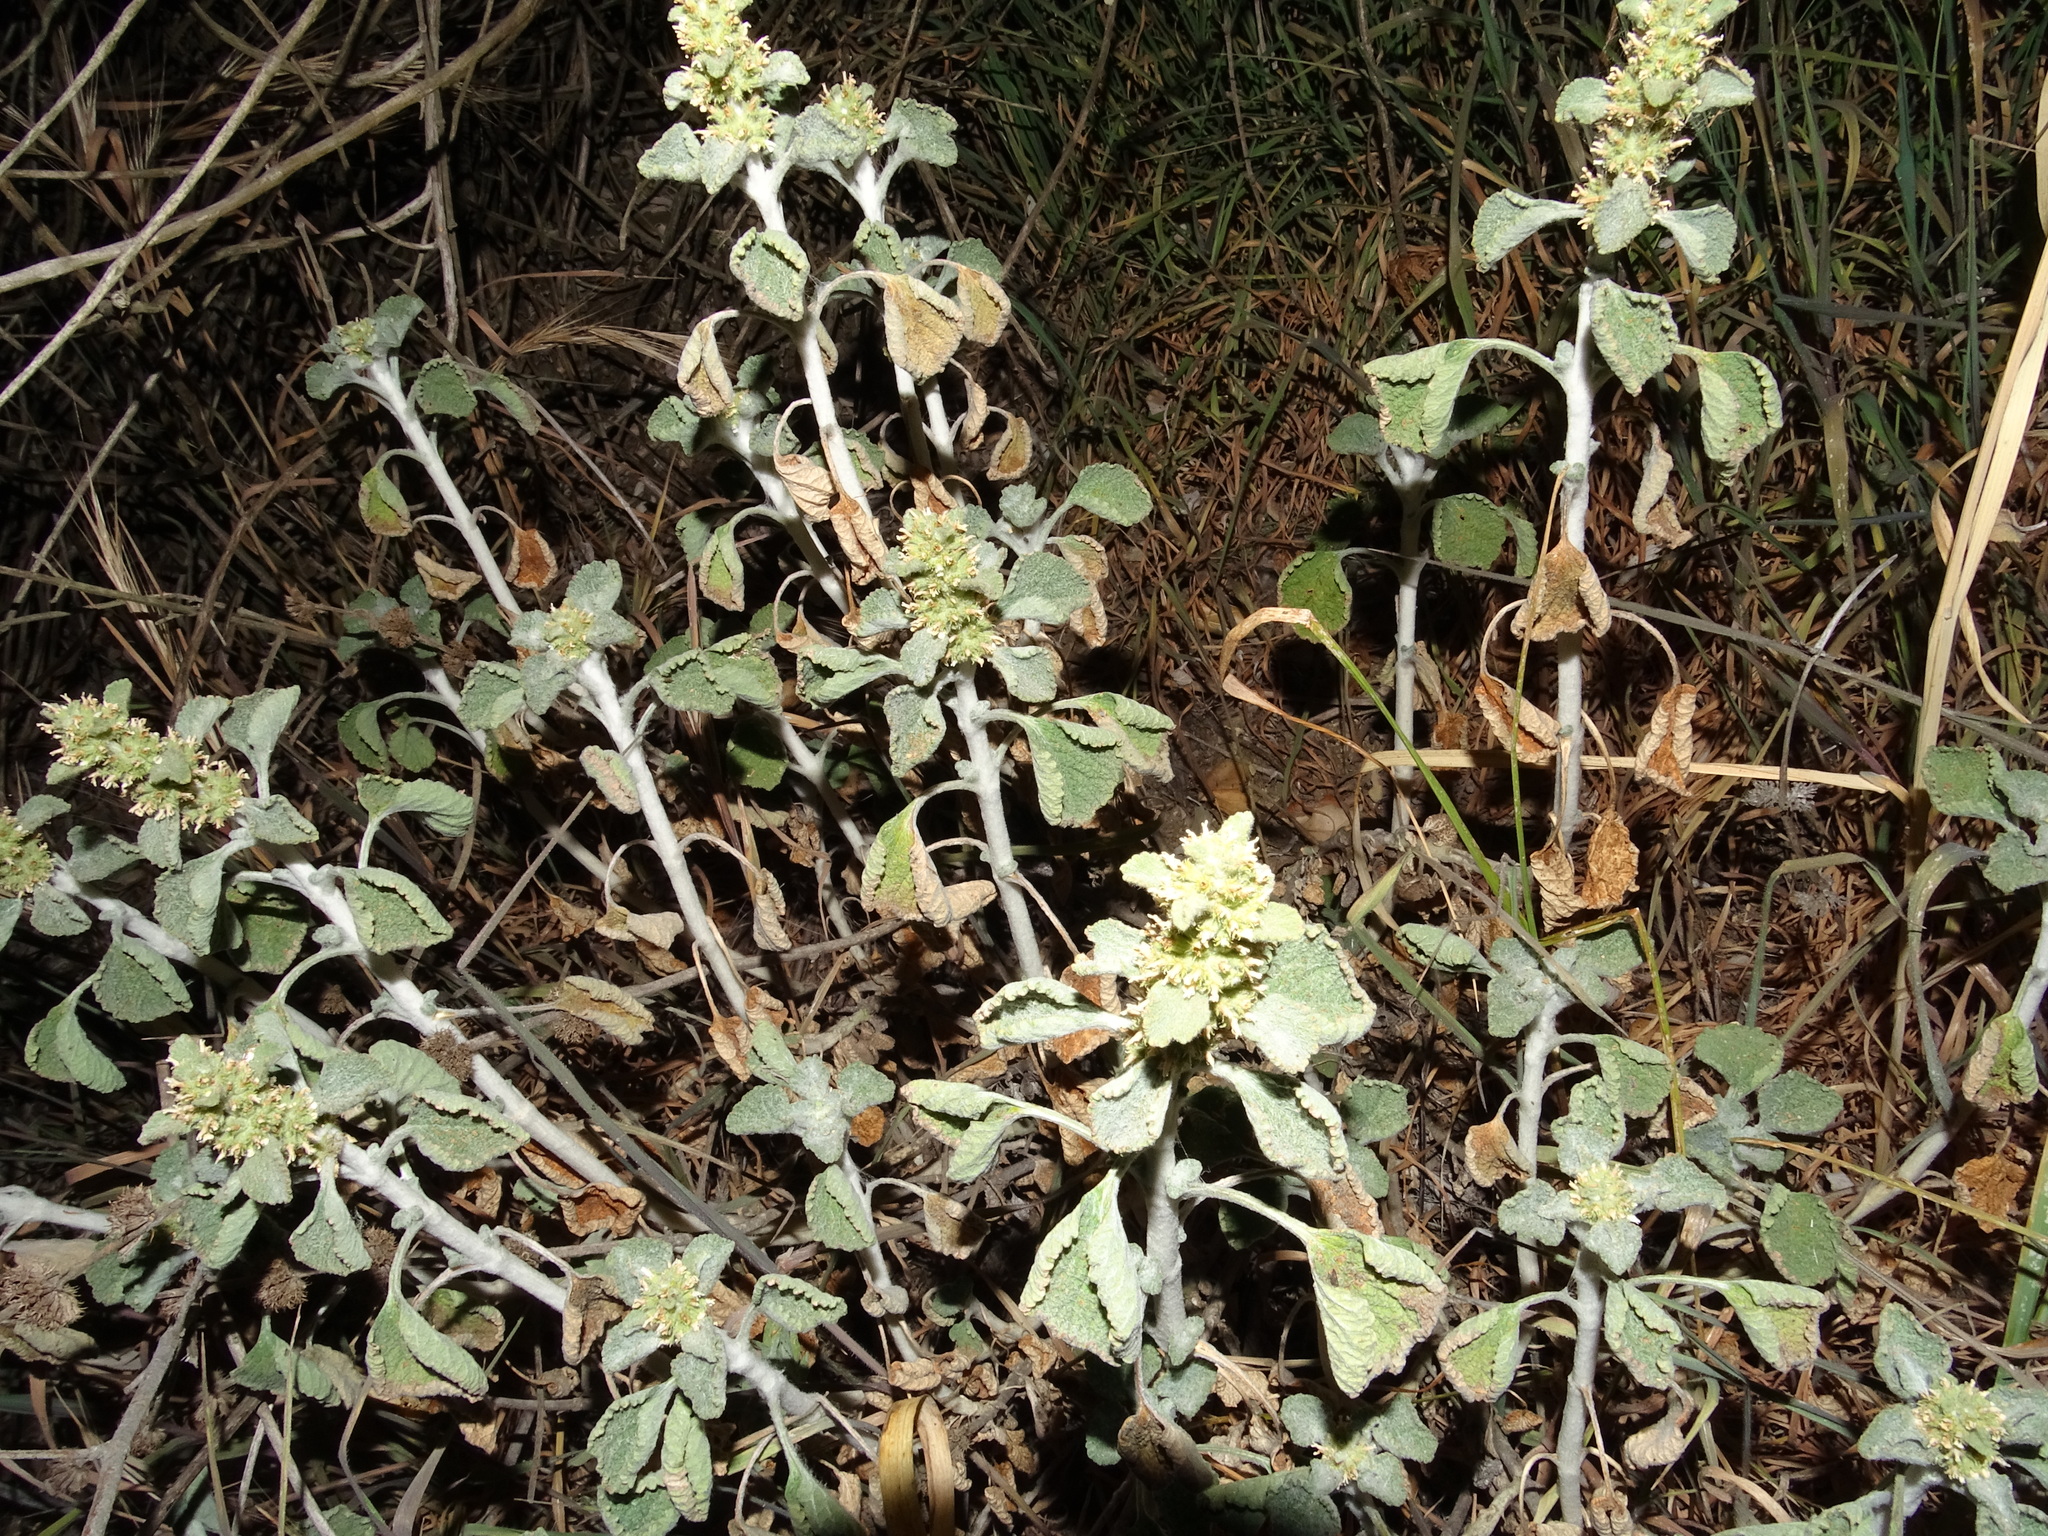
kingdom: Plantae
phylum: Tracheophyta
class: Magnoliopsida
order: Lamiales
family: Lamiaceae
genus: Marrubium
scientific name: Marrubium vulgare
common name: Horehound
